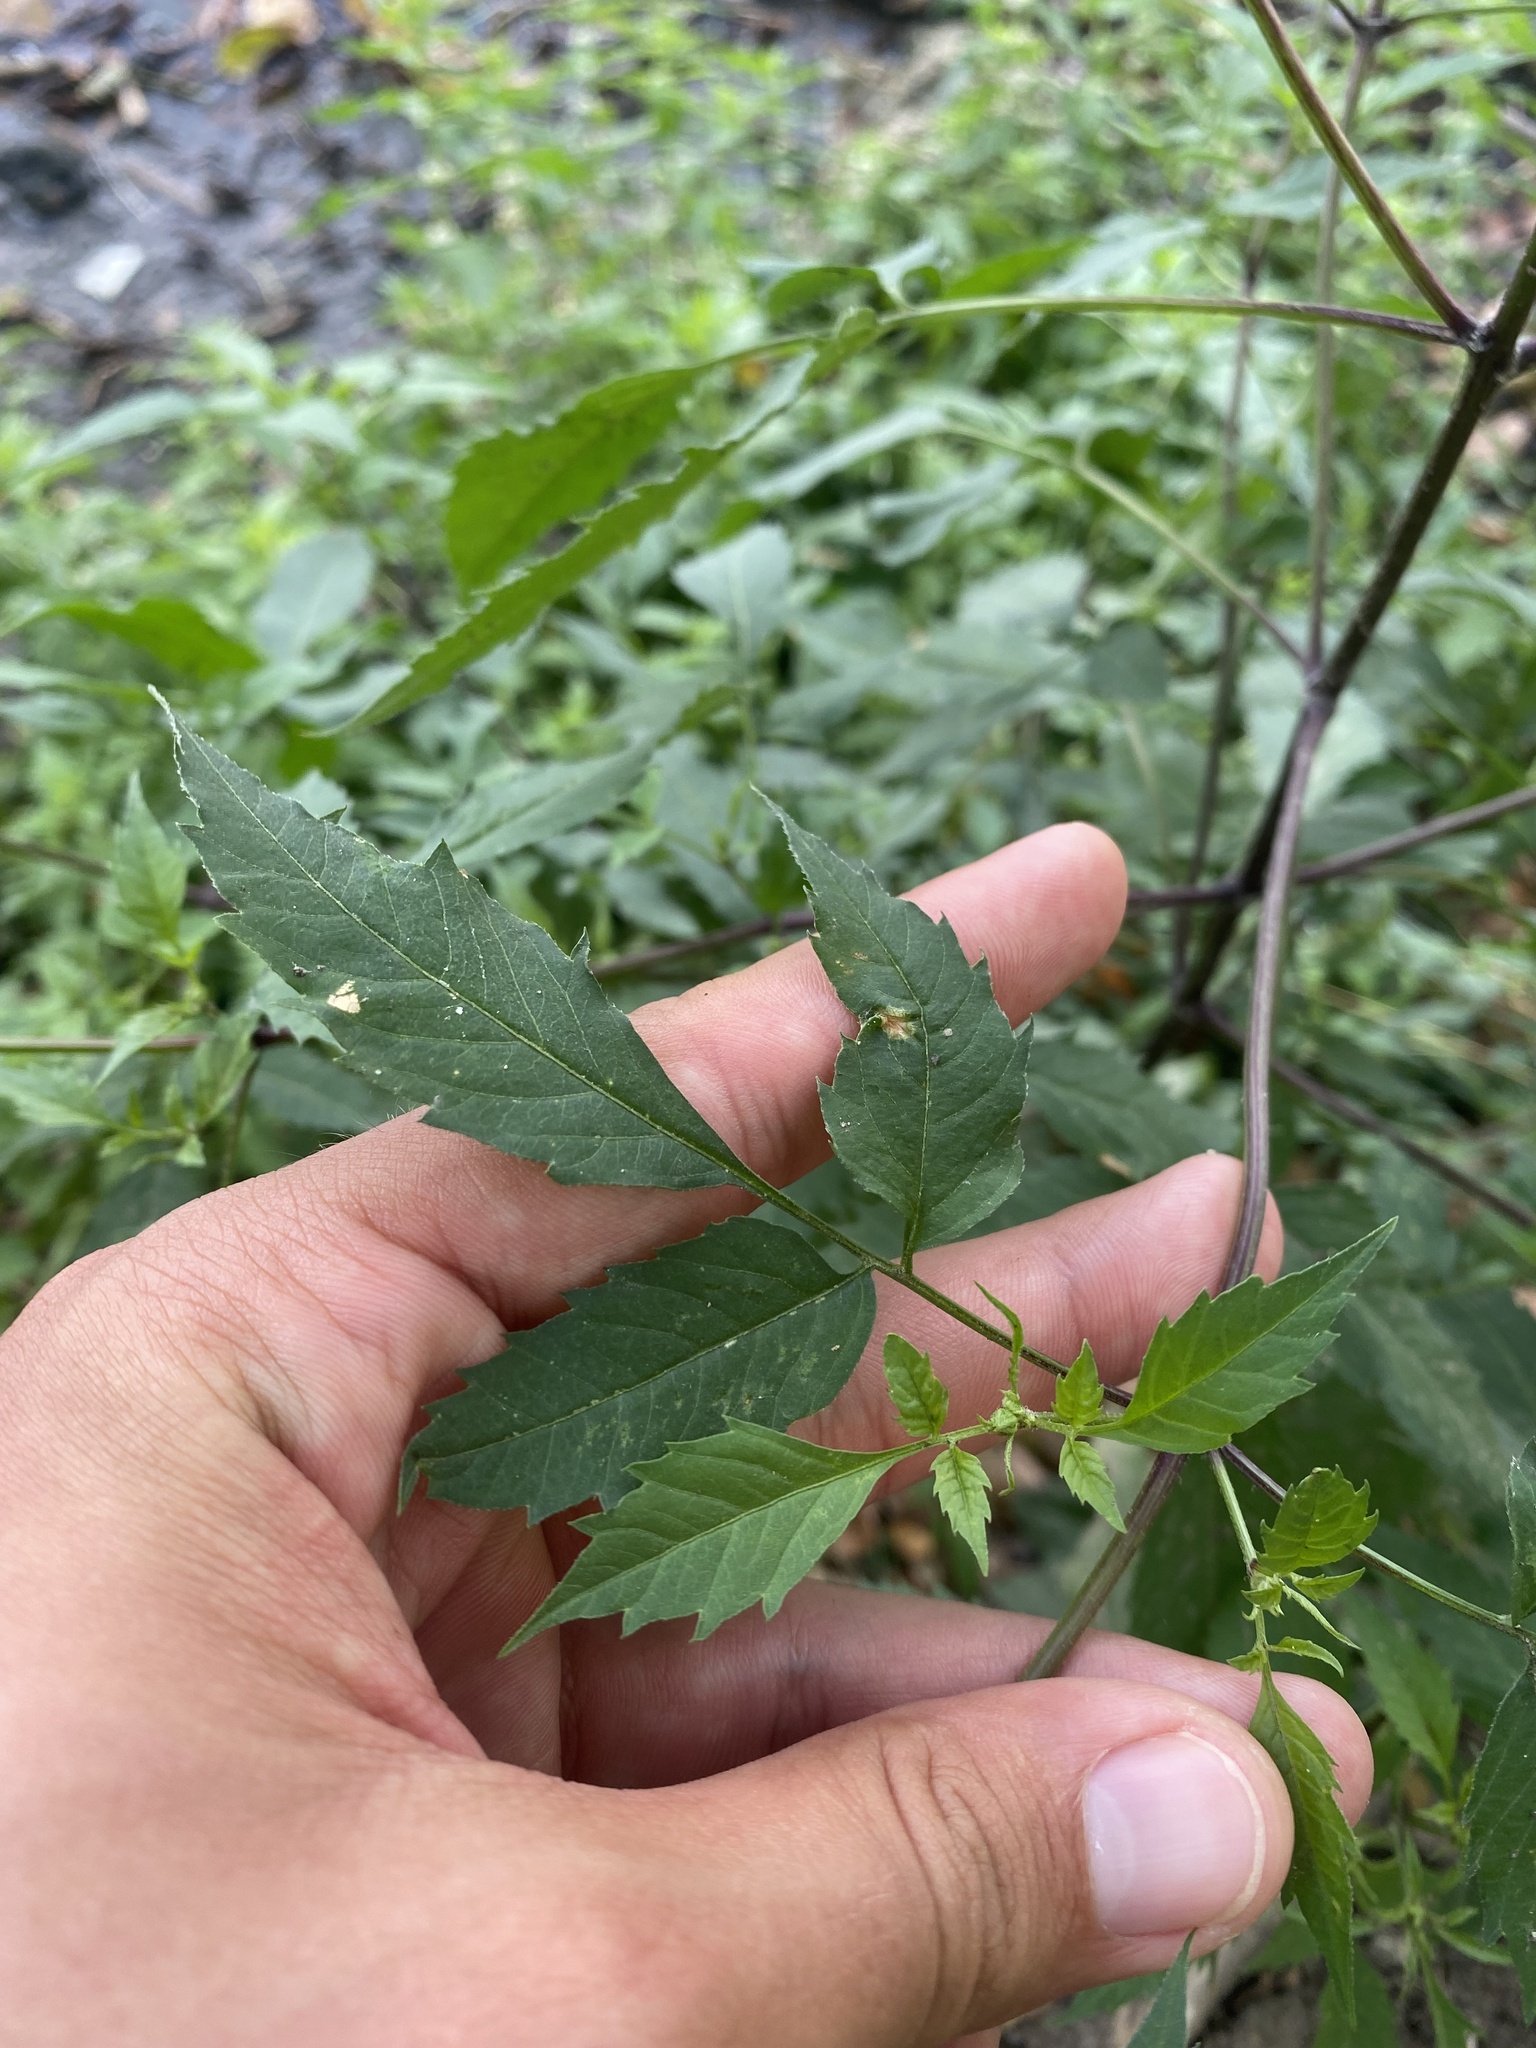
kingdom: Plantae
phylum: Tracheophyta
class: Magnoliopsida
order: Asterales
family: Asteraceae
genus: Bidens
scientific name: Bidens frondosa
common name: Beggarticks
